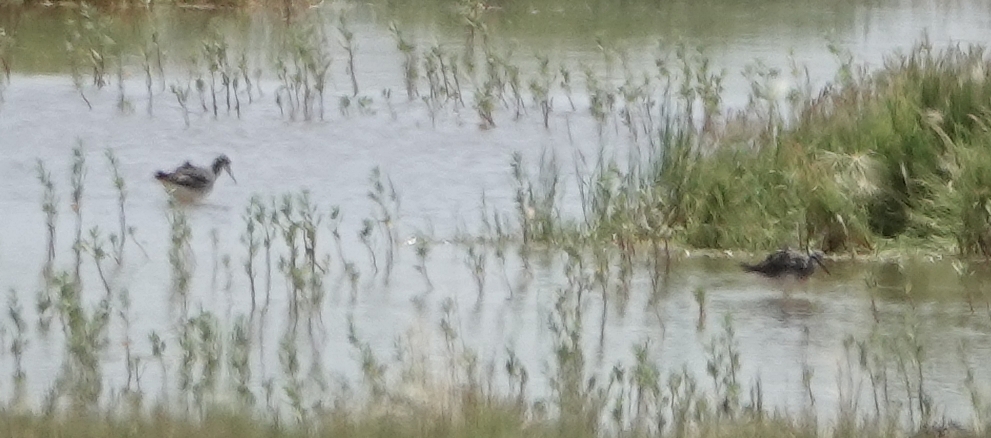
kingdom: Animalia
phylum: Chordata
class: Aves
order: Charadriiformes
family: Scolopacidae
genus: Phalaropus
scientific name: Phalaropus tricolor
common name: Wilson's phalarope
